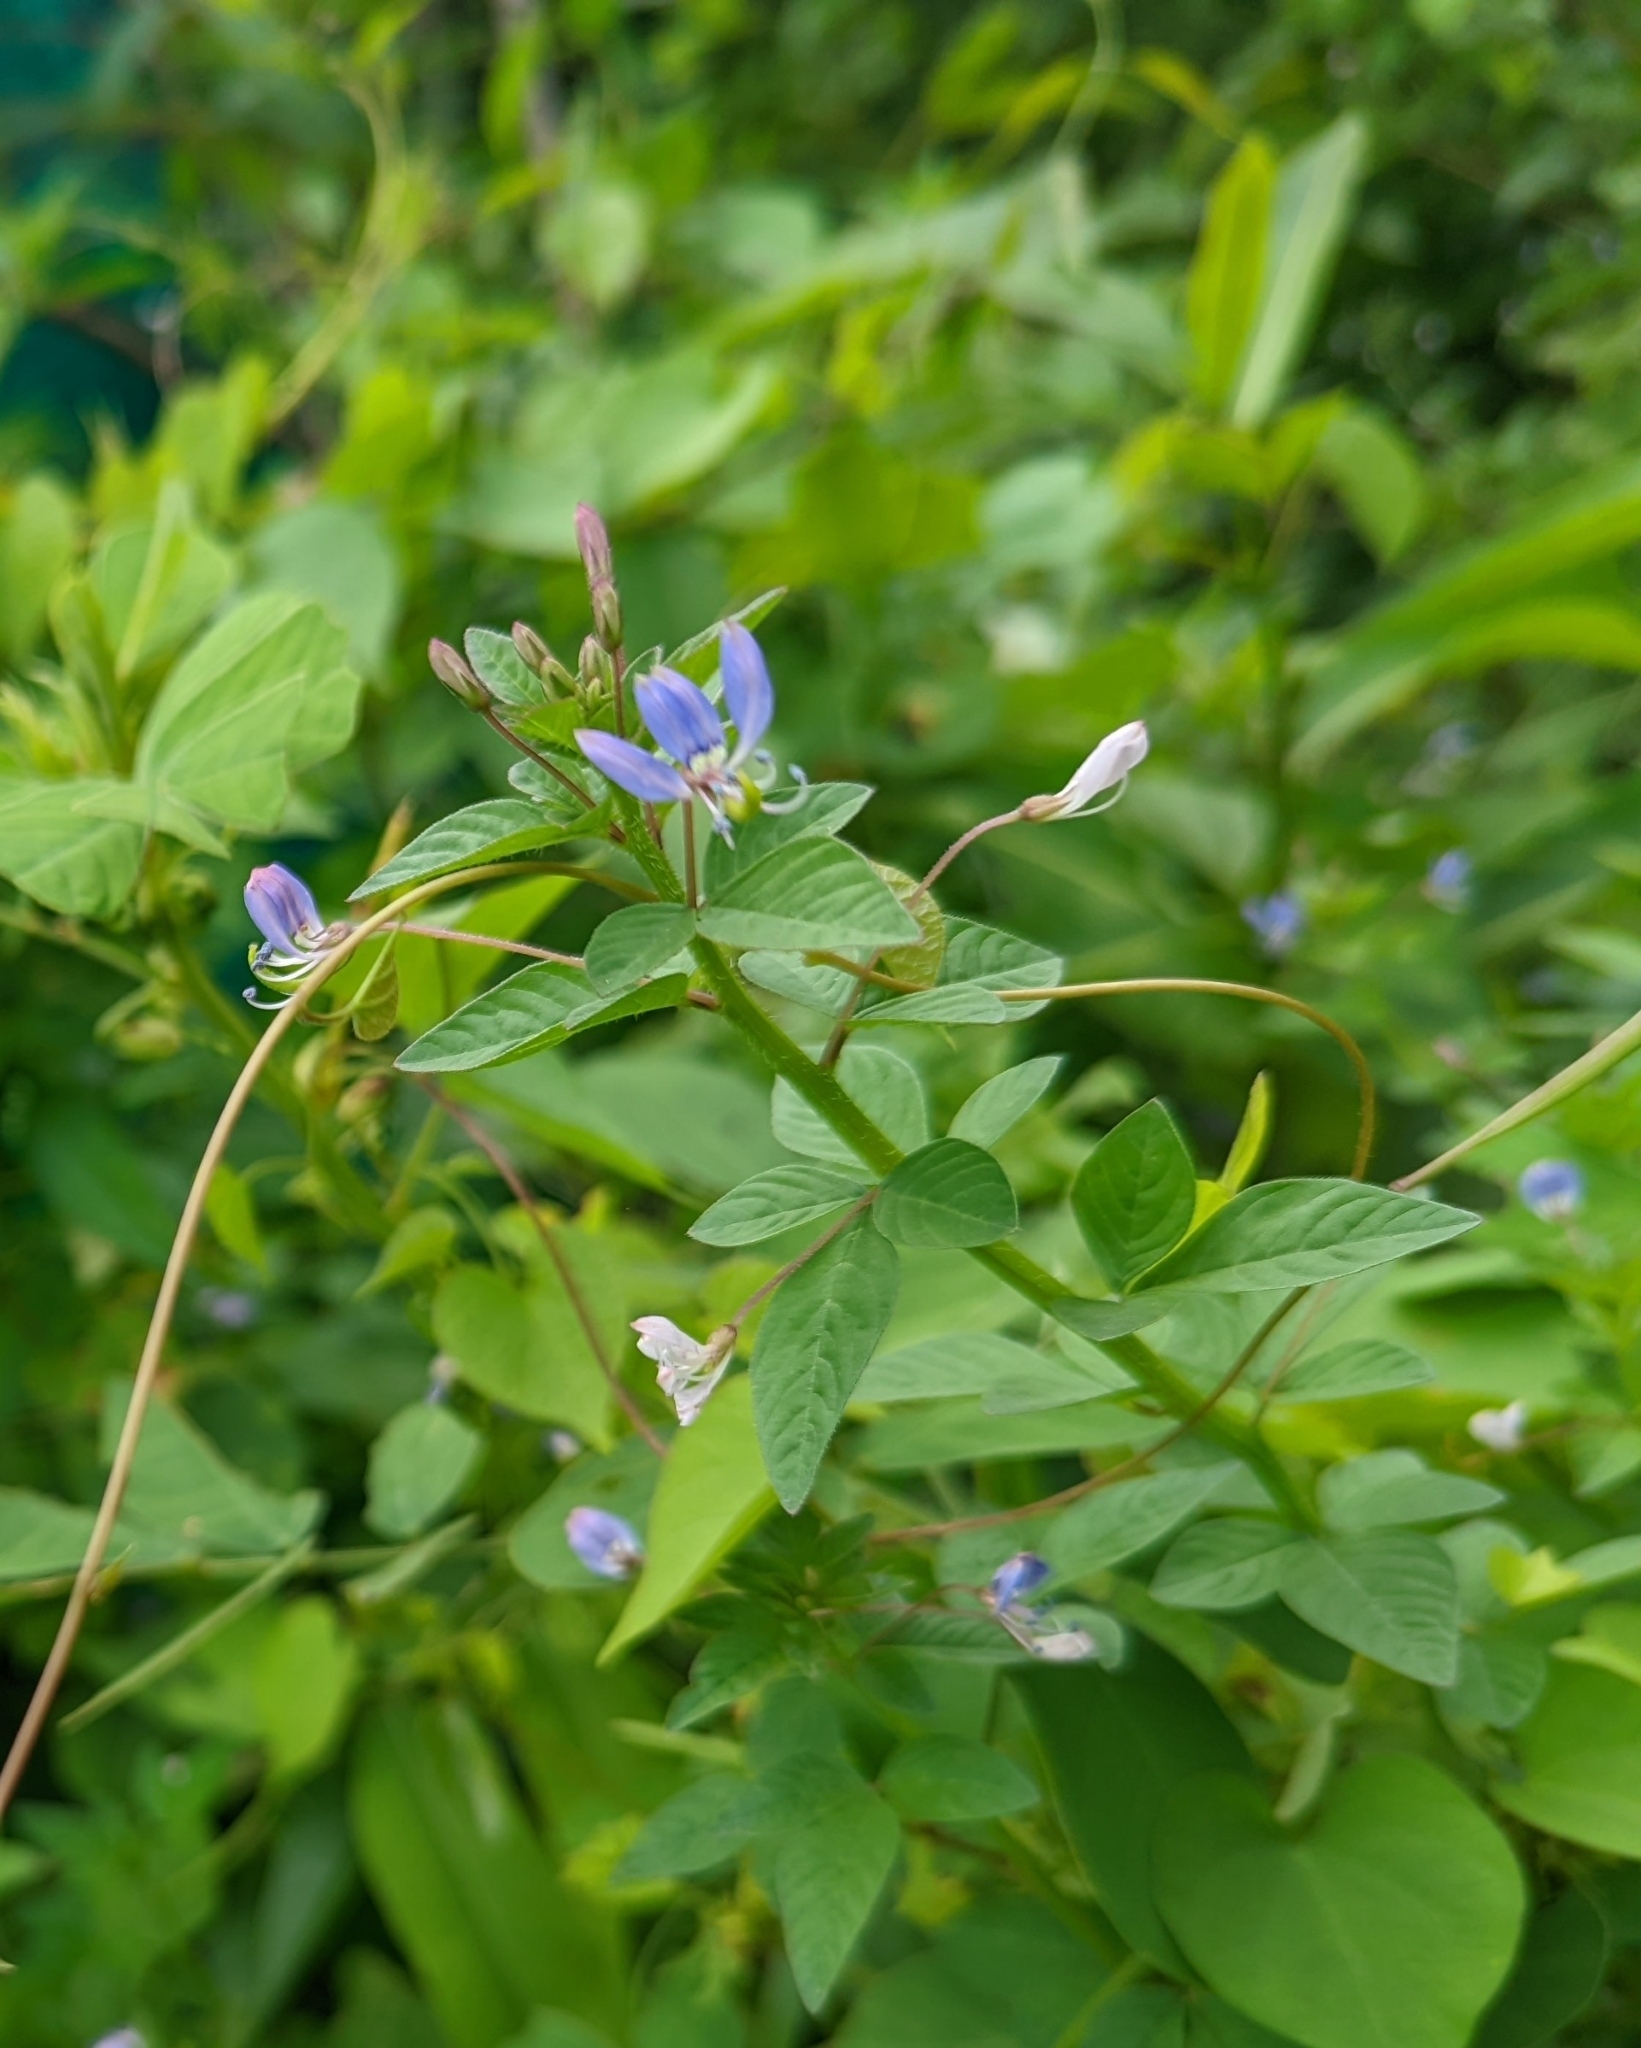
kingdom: Plantae
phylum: Tracheophyta
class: Magnoliopsida
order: Brassicales
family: Cleomaceae
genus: Sieruela
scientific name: Sieruela rutidosperma
